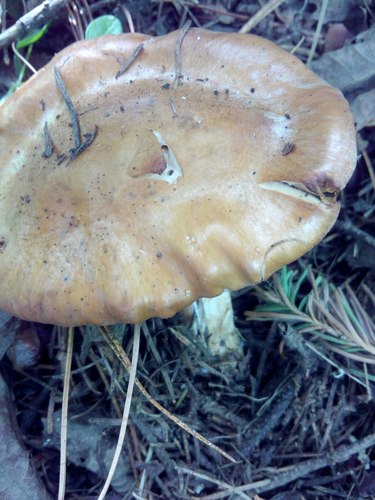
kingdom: Fungi
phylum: Basidiomycota
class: Agaricomycetes
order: Agaricales
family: Cortinariaceae
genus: Cortinarius
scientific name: Cortinarius
